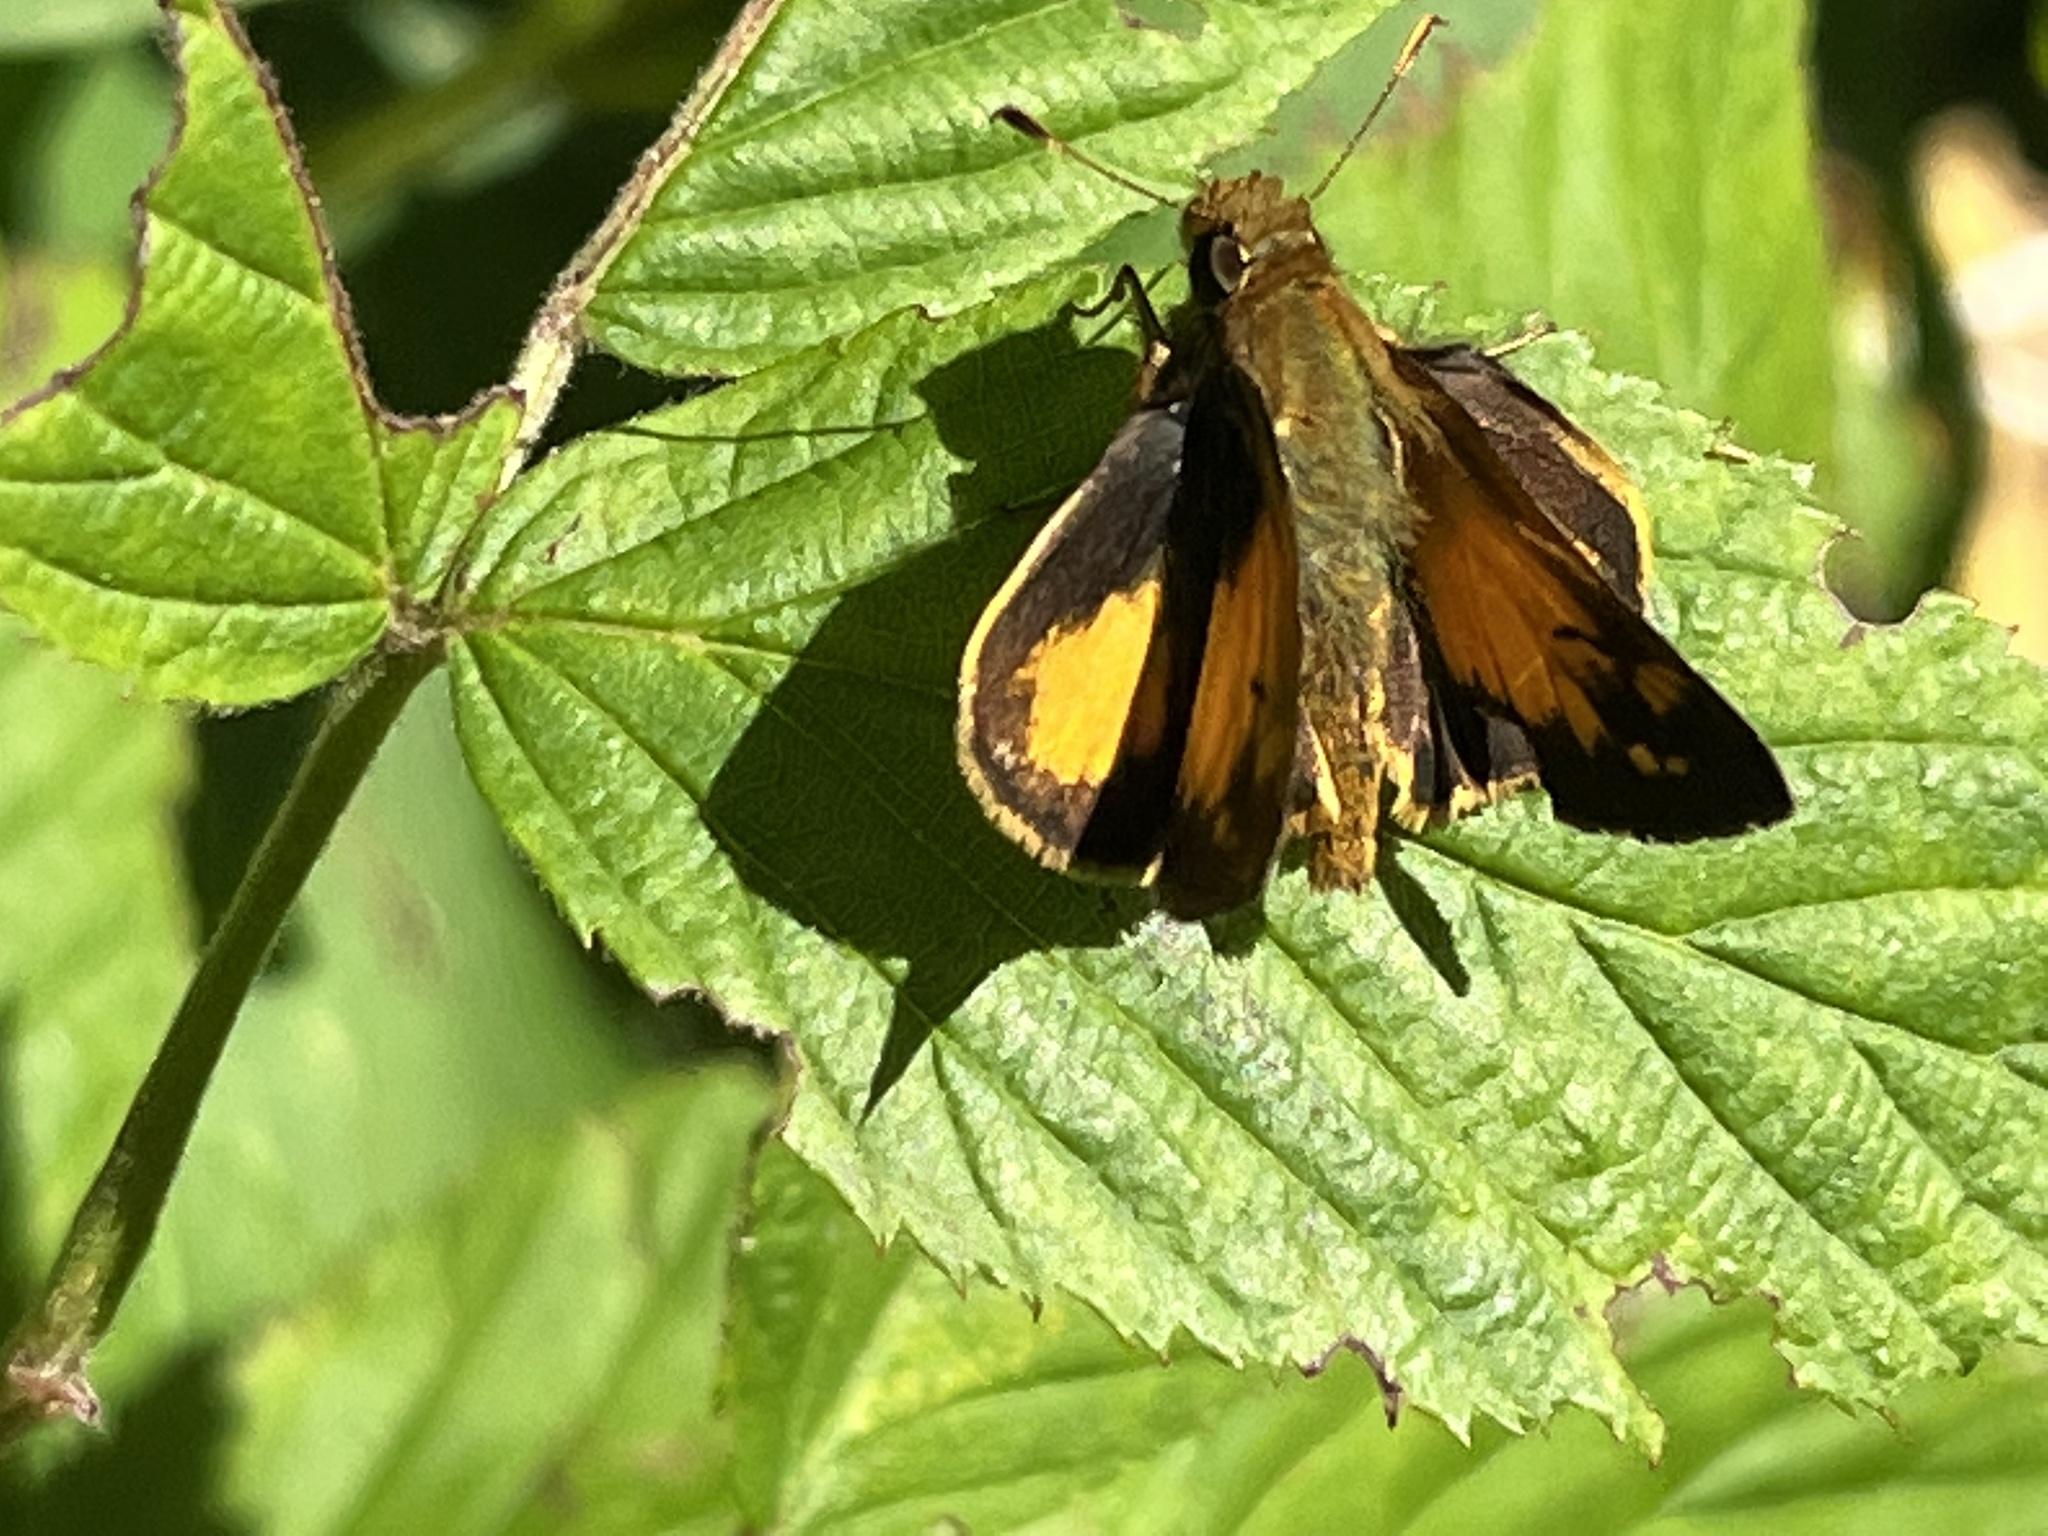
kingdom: Animalia
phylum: Arthropoda
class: Insecta
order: Lepidoptera
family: Hesperiidae
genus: Lon
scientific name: Lon zabulon
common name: Zabulon skipper
